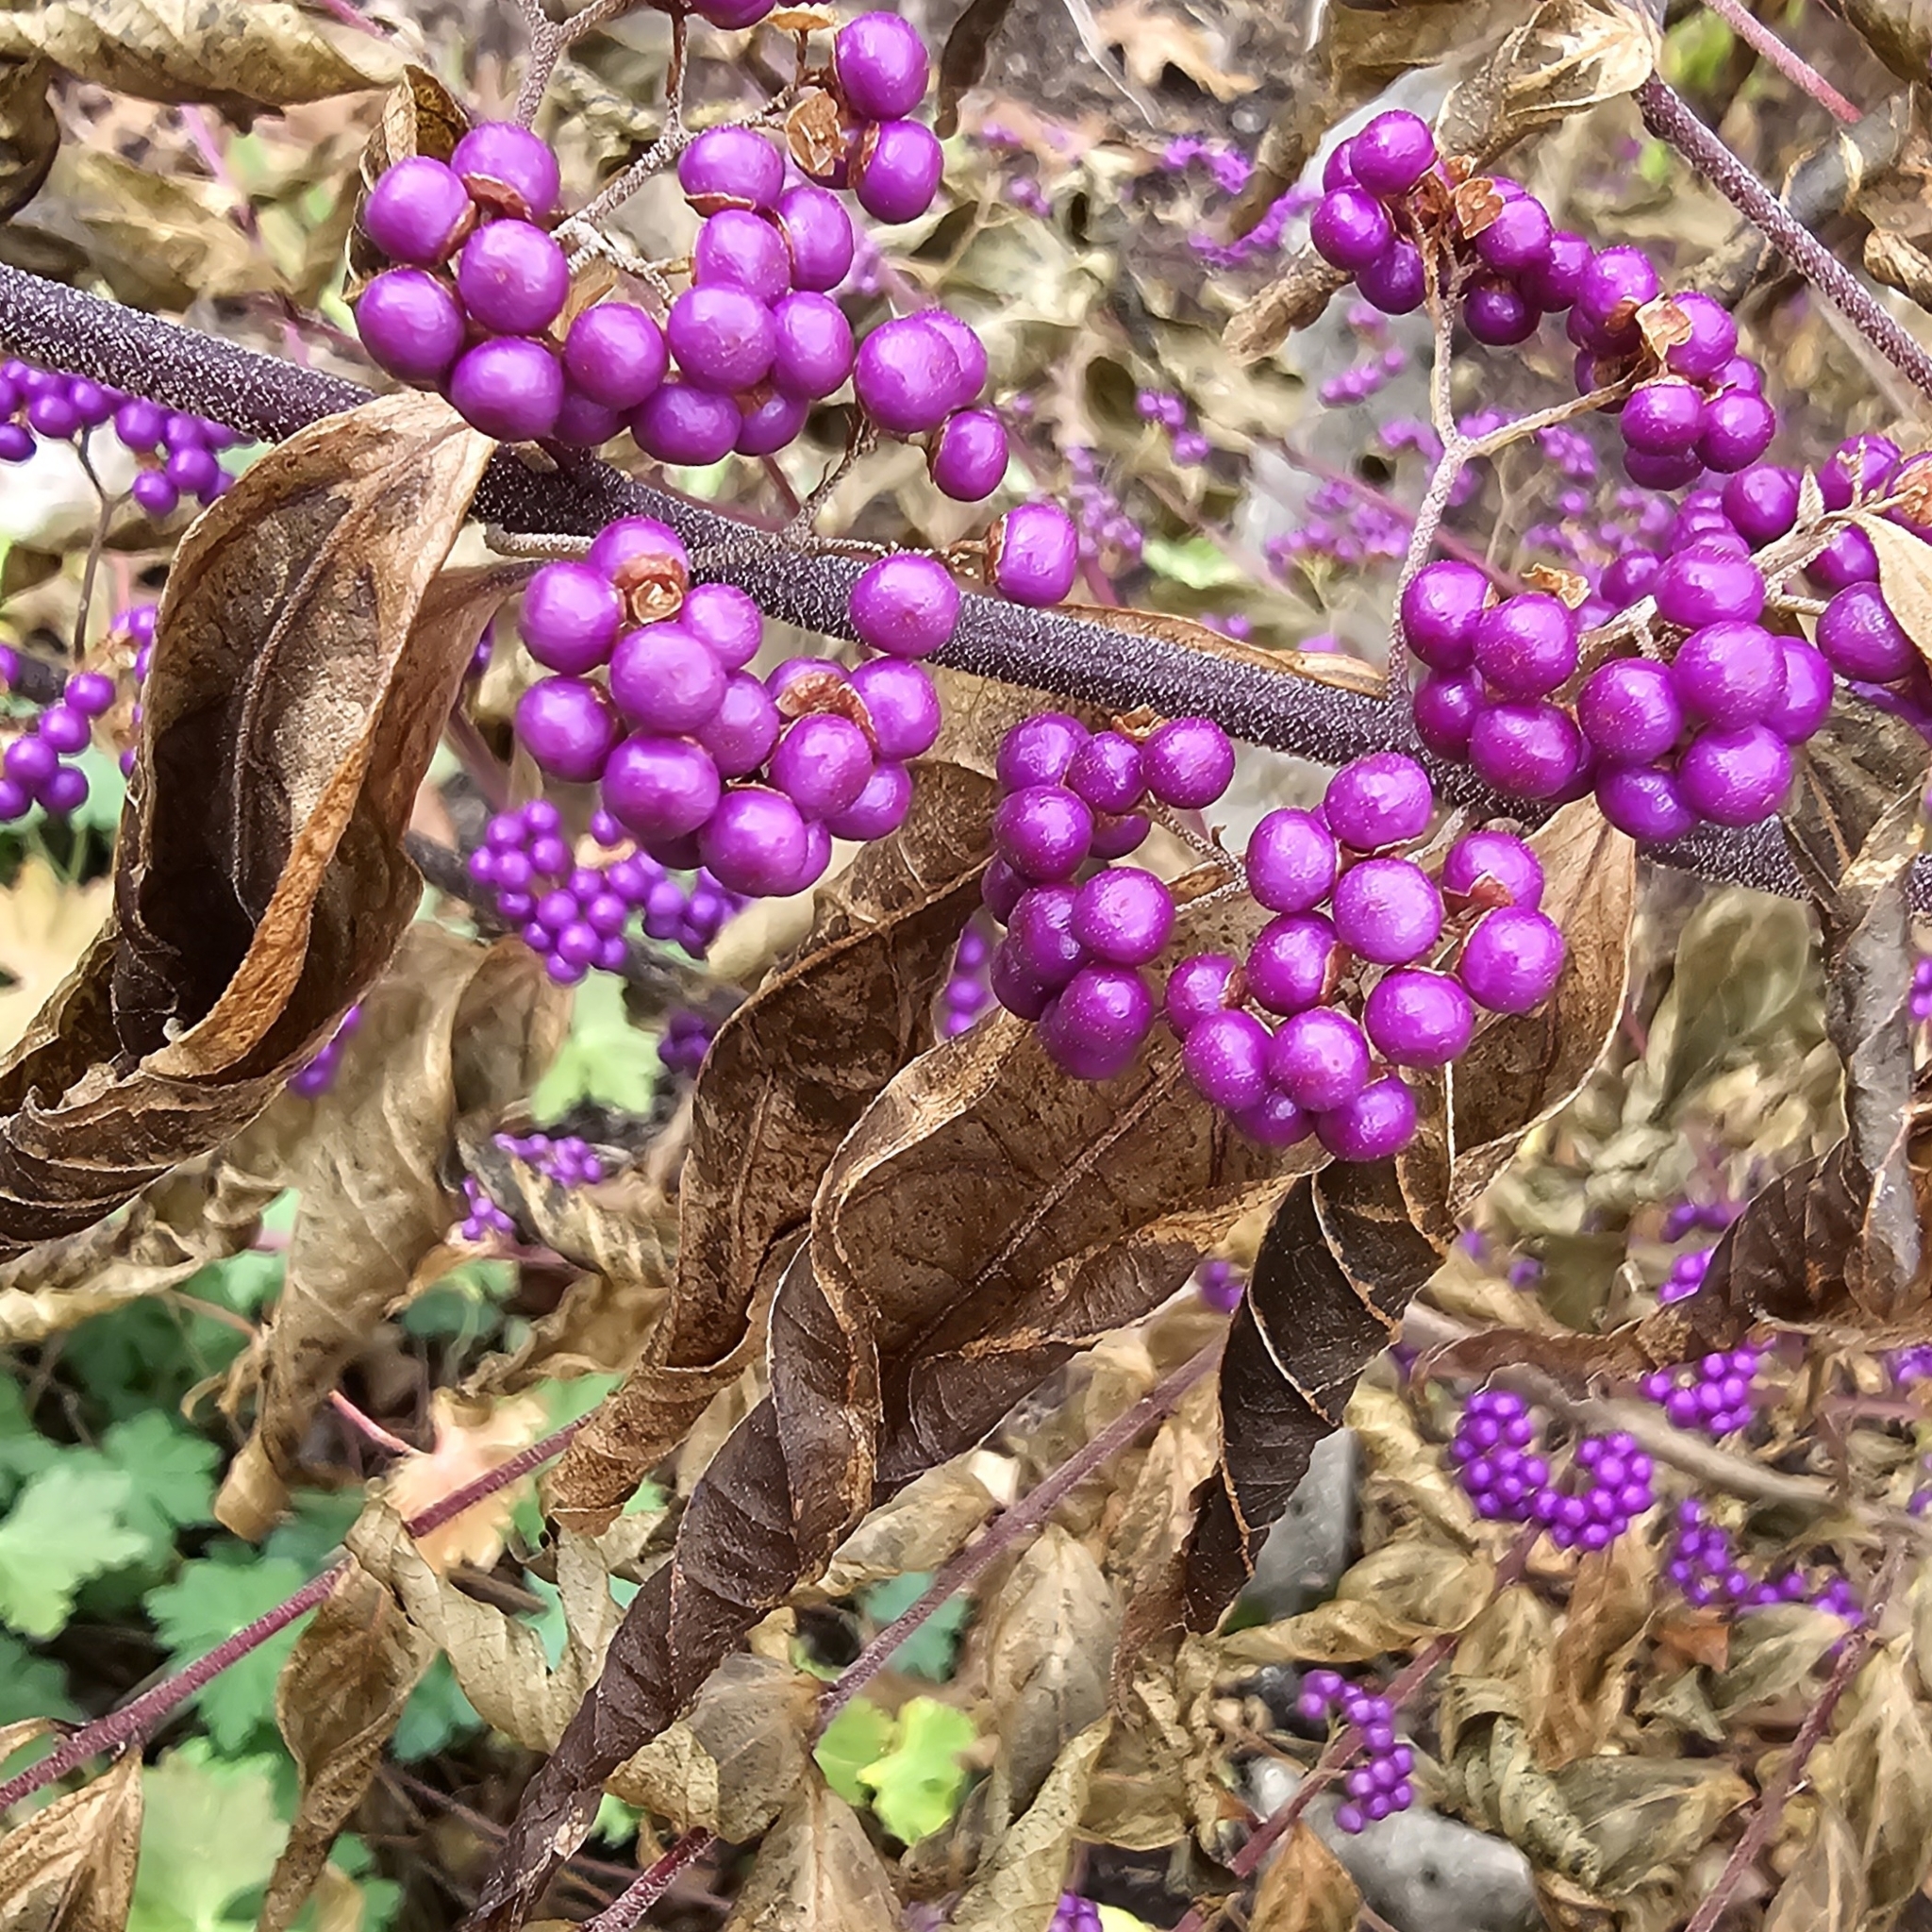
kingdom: Plantae
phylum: Tracheophyta
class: Magnoliopsida
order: Lamiales
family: Lamiaceae
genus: Callicarpa
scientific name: Callicarpa dichotoma
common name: Purple beauty-berry
